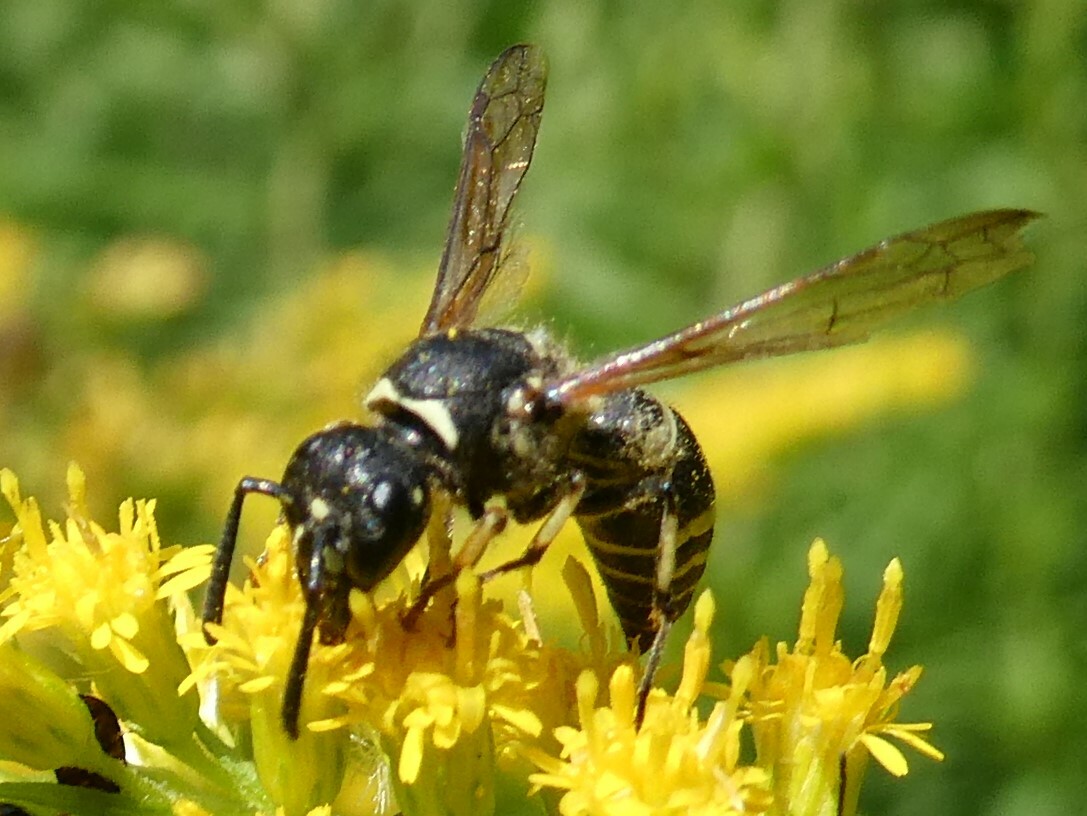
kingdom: Animalia
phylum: Arthropoda
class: Insecta
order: Hymenoptera
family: Vespidae
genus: Ancistrocerus
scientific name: Ancistrocerus albophaleratus
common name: White-banded potter wasp
